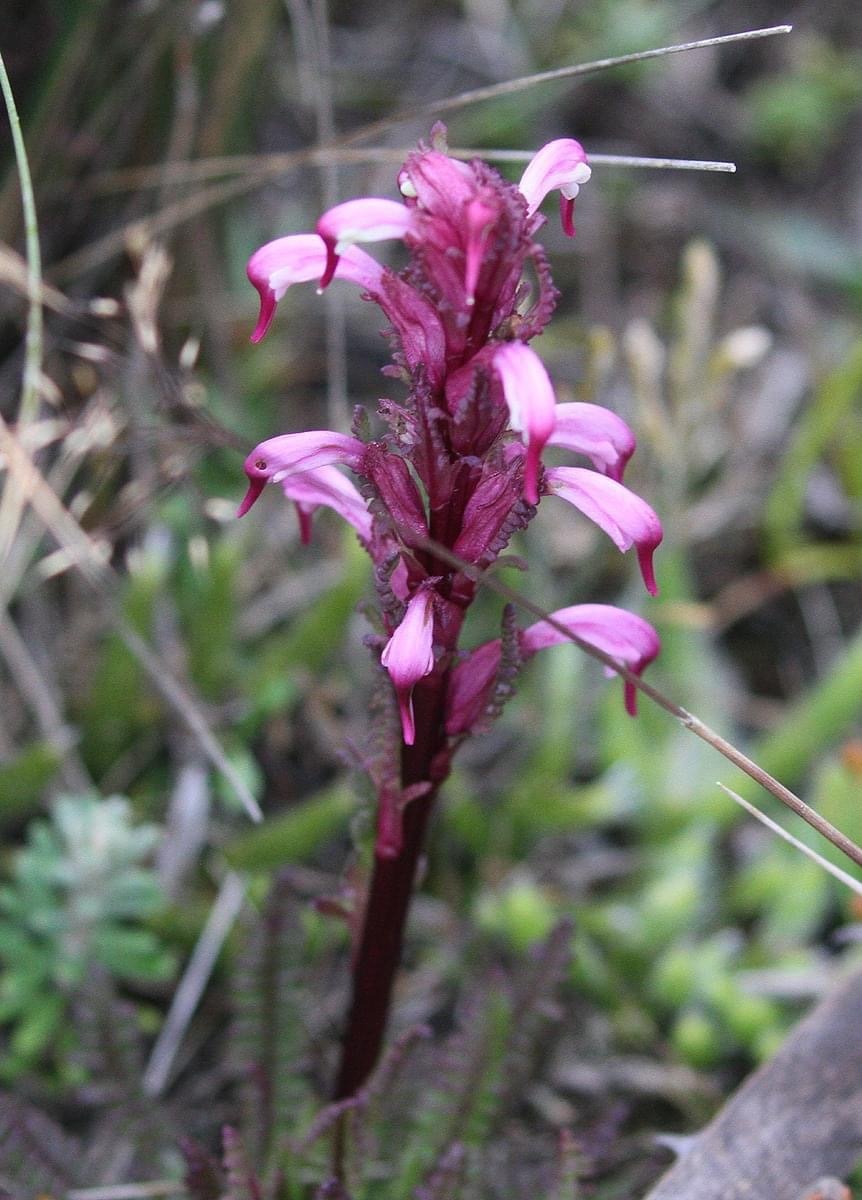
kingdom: Plantae
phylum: Tracheophyta
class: Magnoliopsida
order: Lamiales
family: Orobanchaceae
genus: Pedicularis
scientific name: Pedicularis incurva
